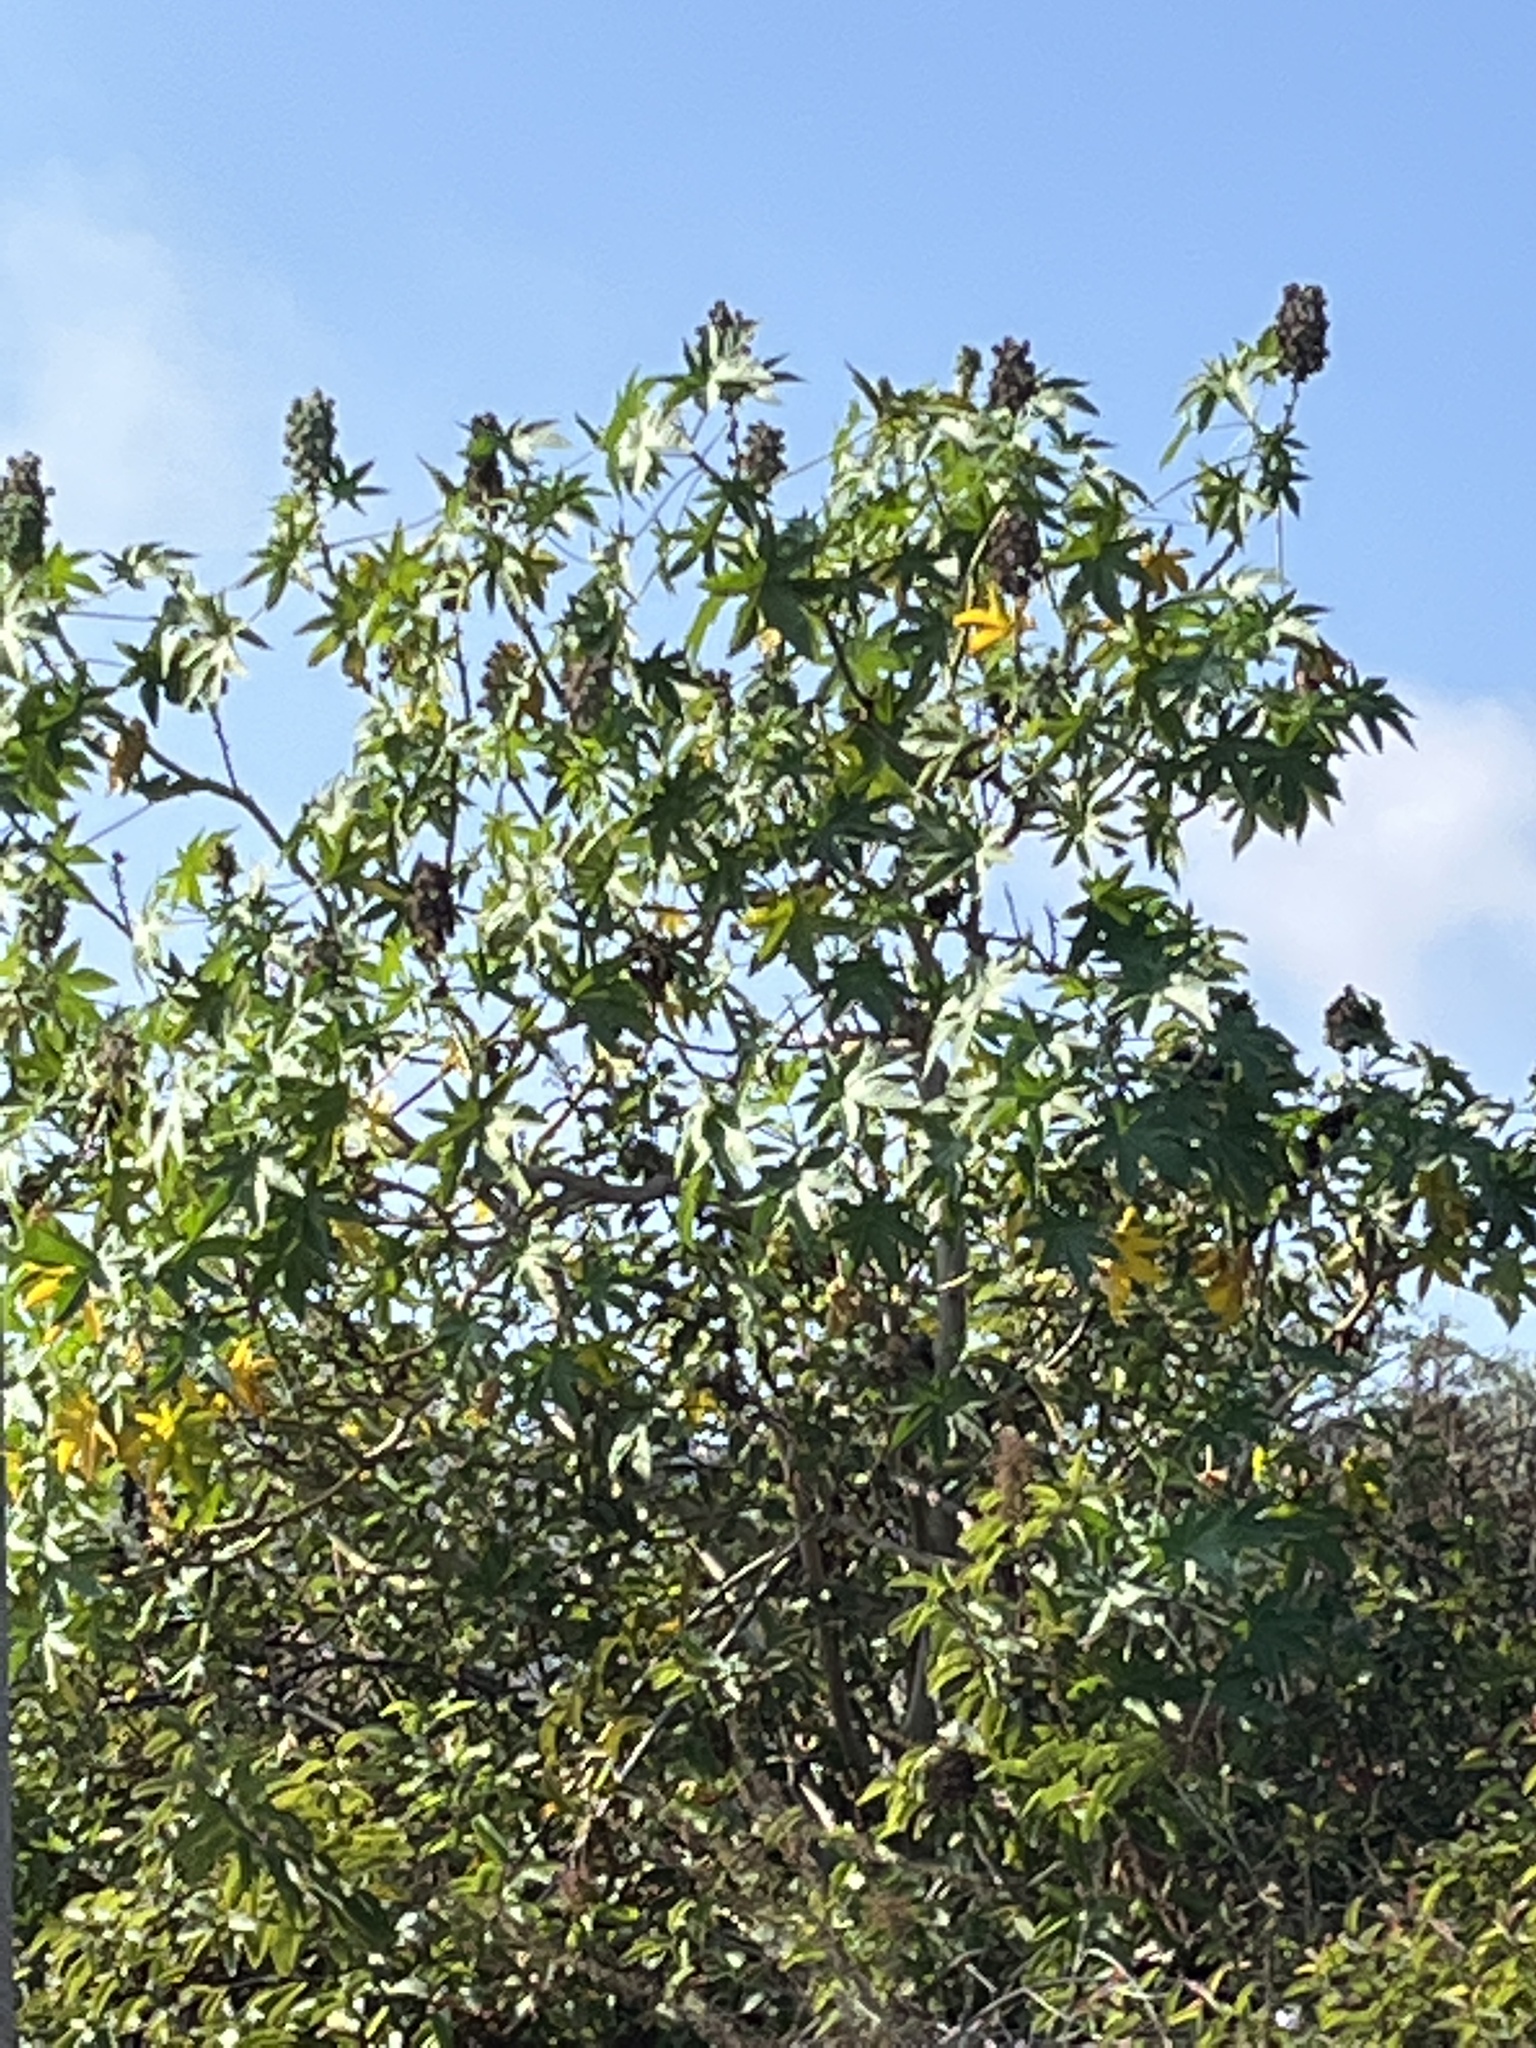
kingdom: Plantae
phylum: Tracheophyta
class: Magnoliopsida
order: Malpighiales
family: Euphorbiaceae
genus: Ricinus
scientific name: Ricinus communis
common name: Castor-oil-plant
